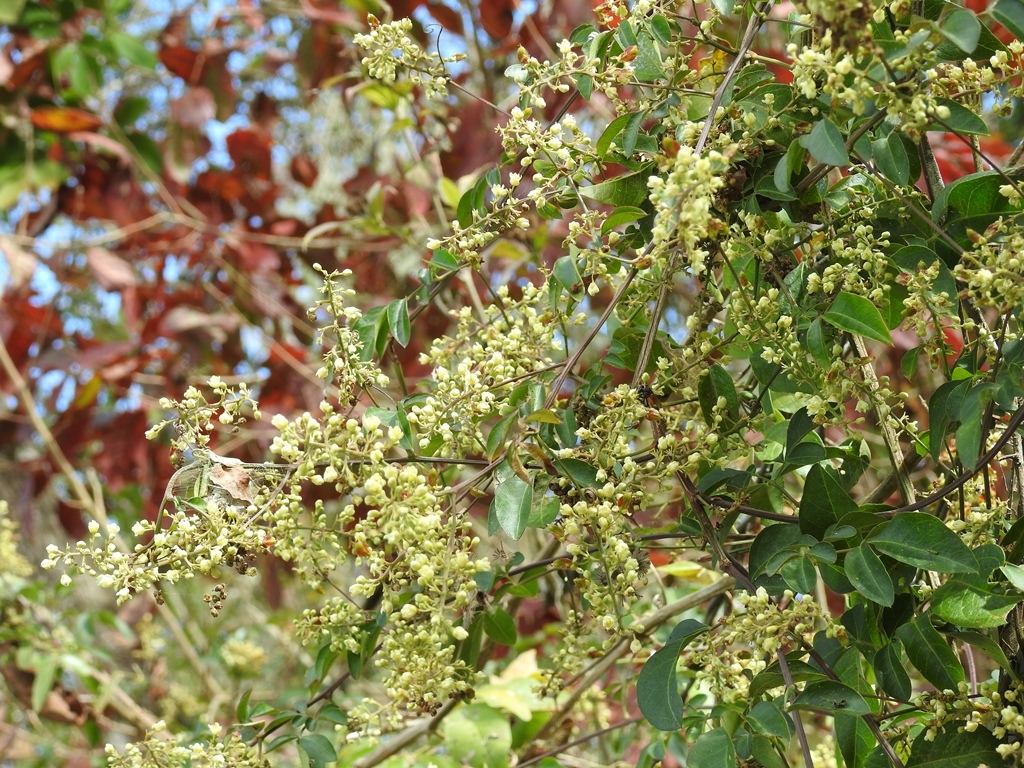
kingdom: Plantae
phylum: Tracheophyta
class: Magnoliopsida
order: Sapindales
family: Sapindaceae
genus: Paullinia
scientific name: Paullinia fuscescens
